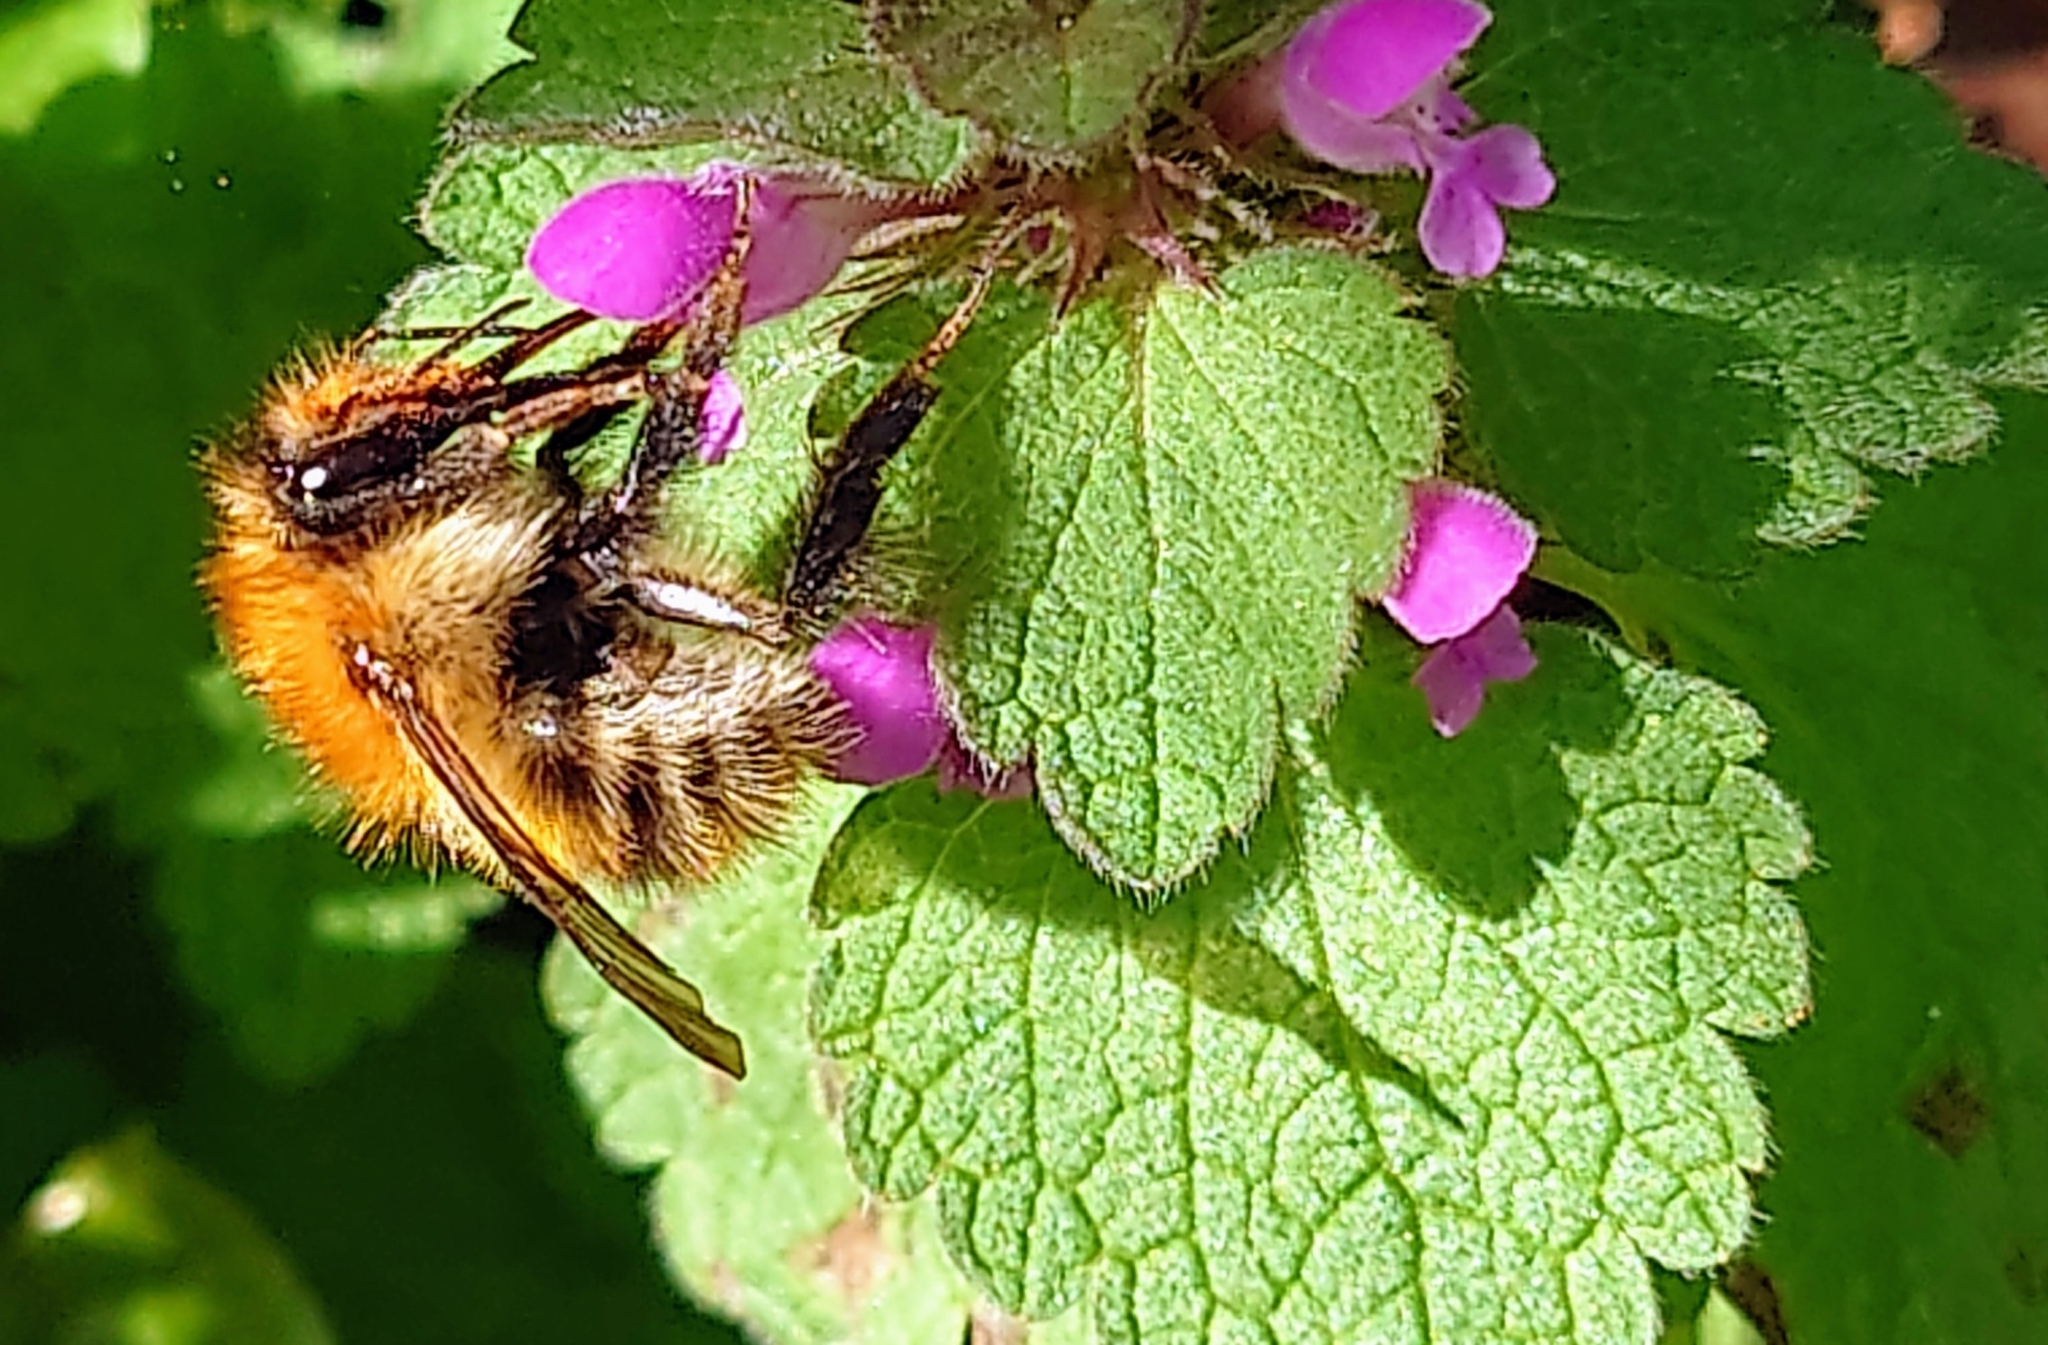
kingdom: Animalia
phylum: Arthropoda
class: Insecta
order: Hymenoptera
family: Apidae
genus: Bombus
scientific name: Bombus pascuorum
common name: Common carder bee
